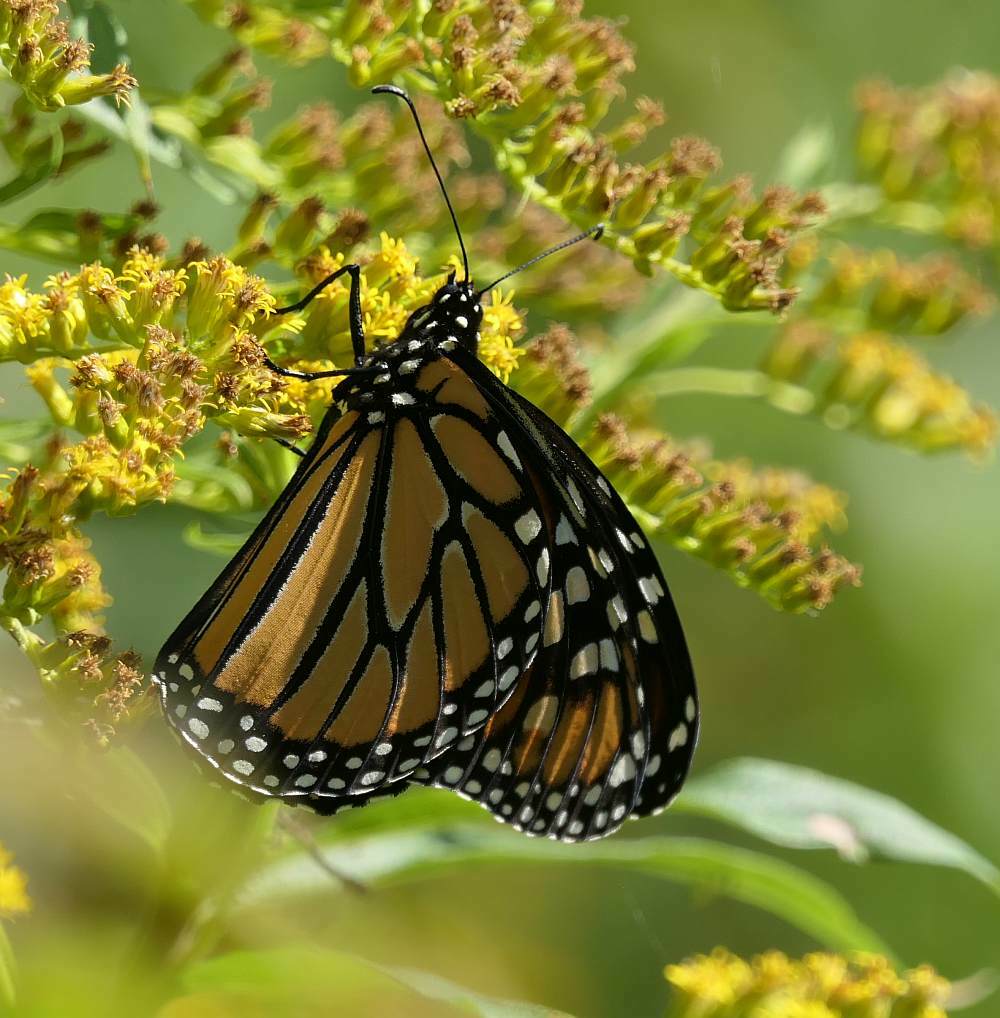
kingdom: Animalia
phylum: Arthropoda
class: Insecta
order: Lepidoptera
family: Nymphalidae
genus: Danaus
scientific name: Danaus plexippus
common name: Monarch
